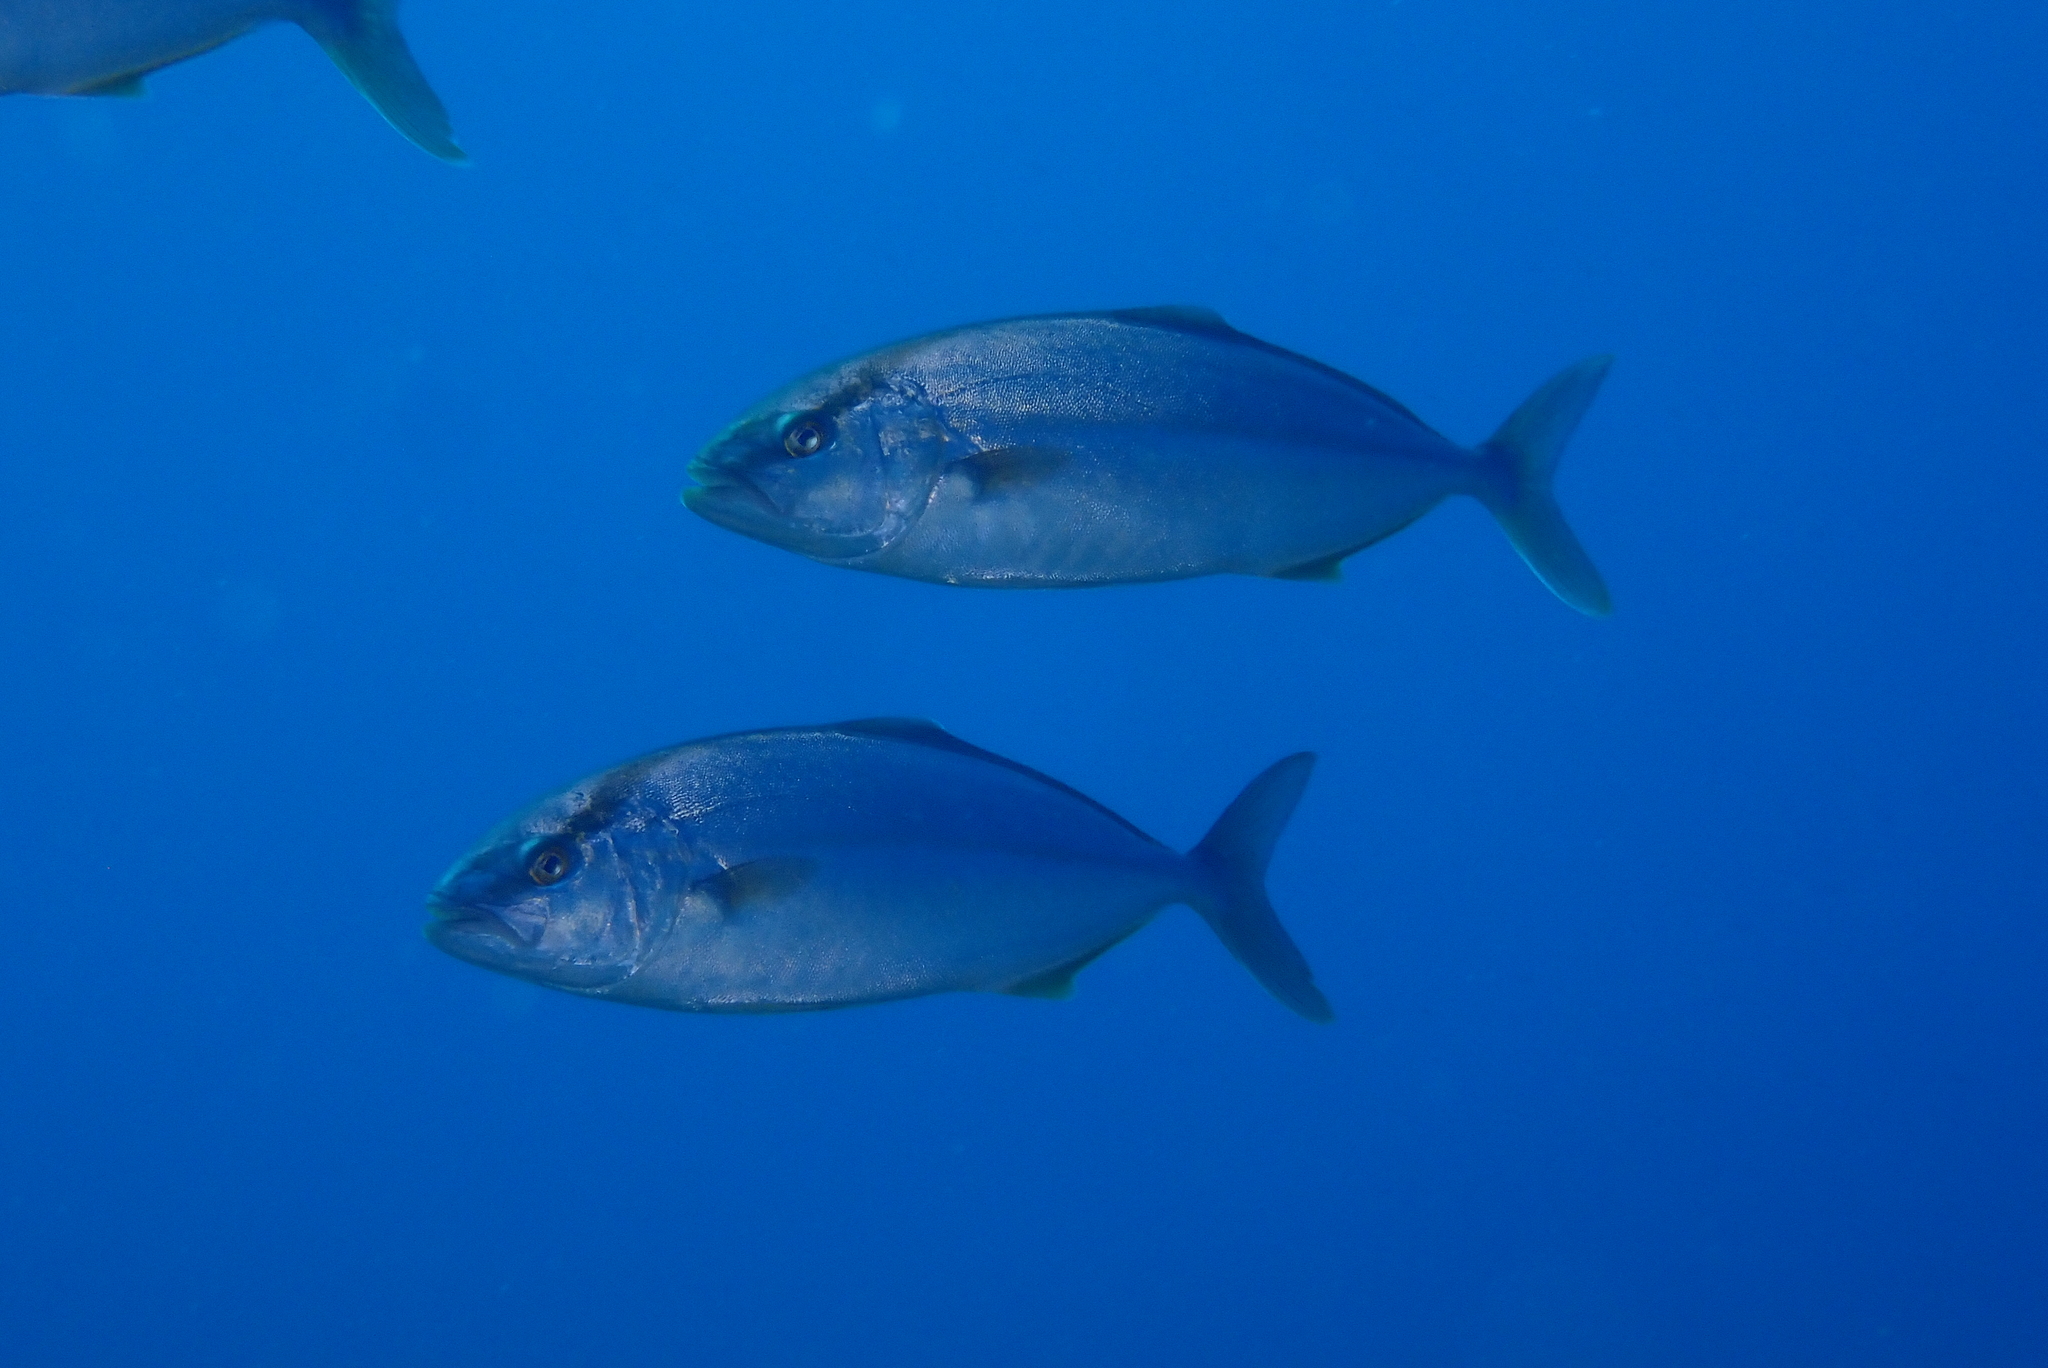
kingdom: Animalia
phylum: Chordata
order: Perciformes
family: Carangidae
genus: Seriola
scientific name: Seriola dumerili
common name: Greater amberjack
